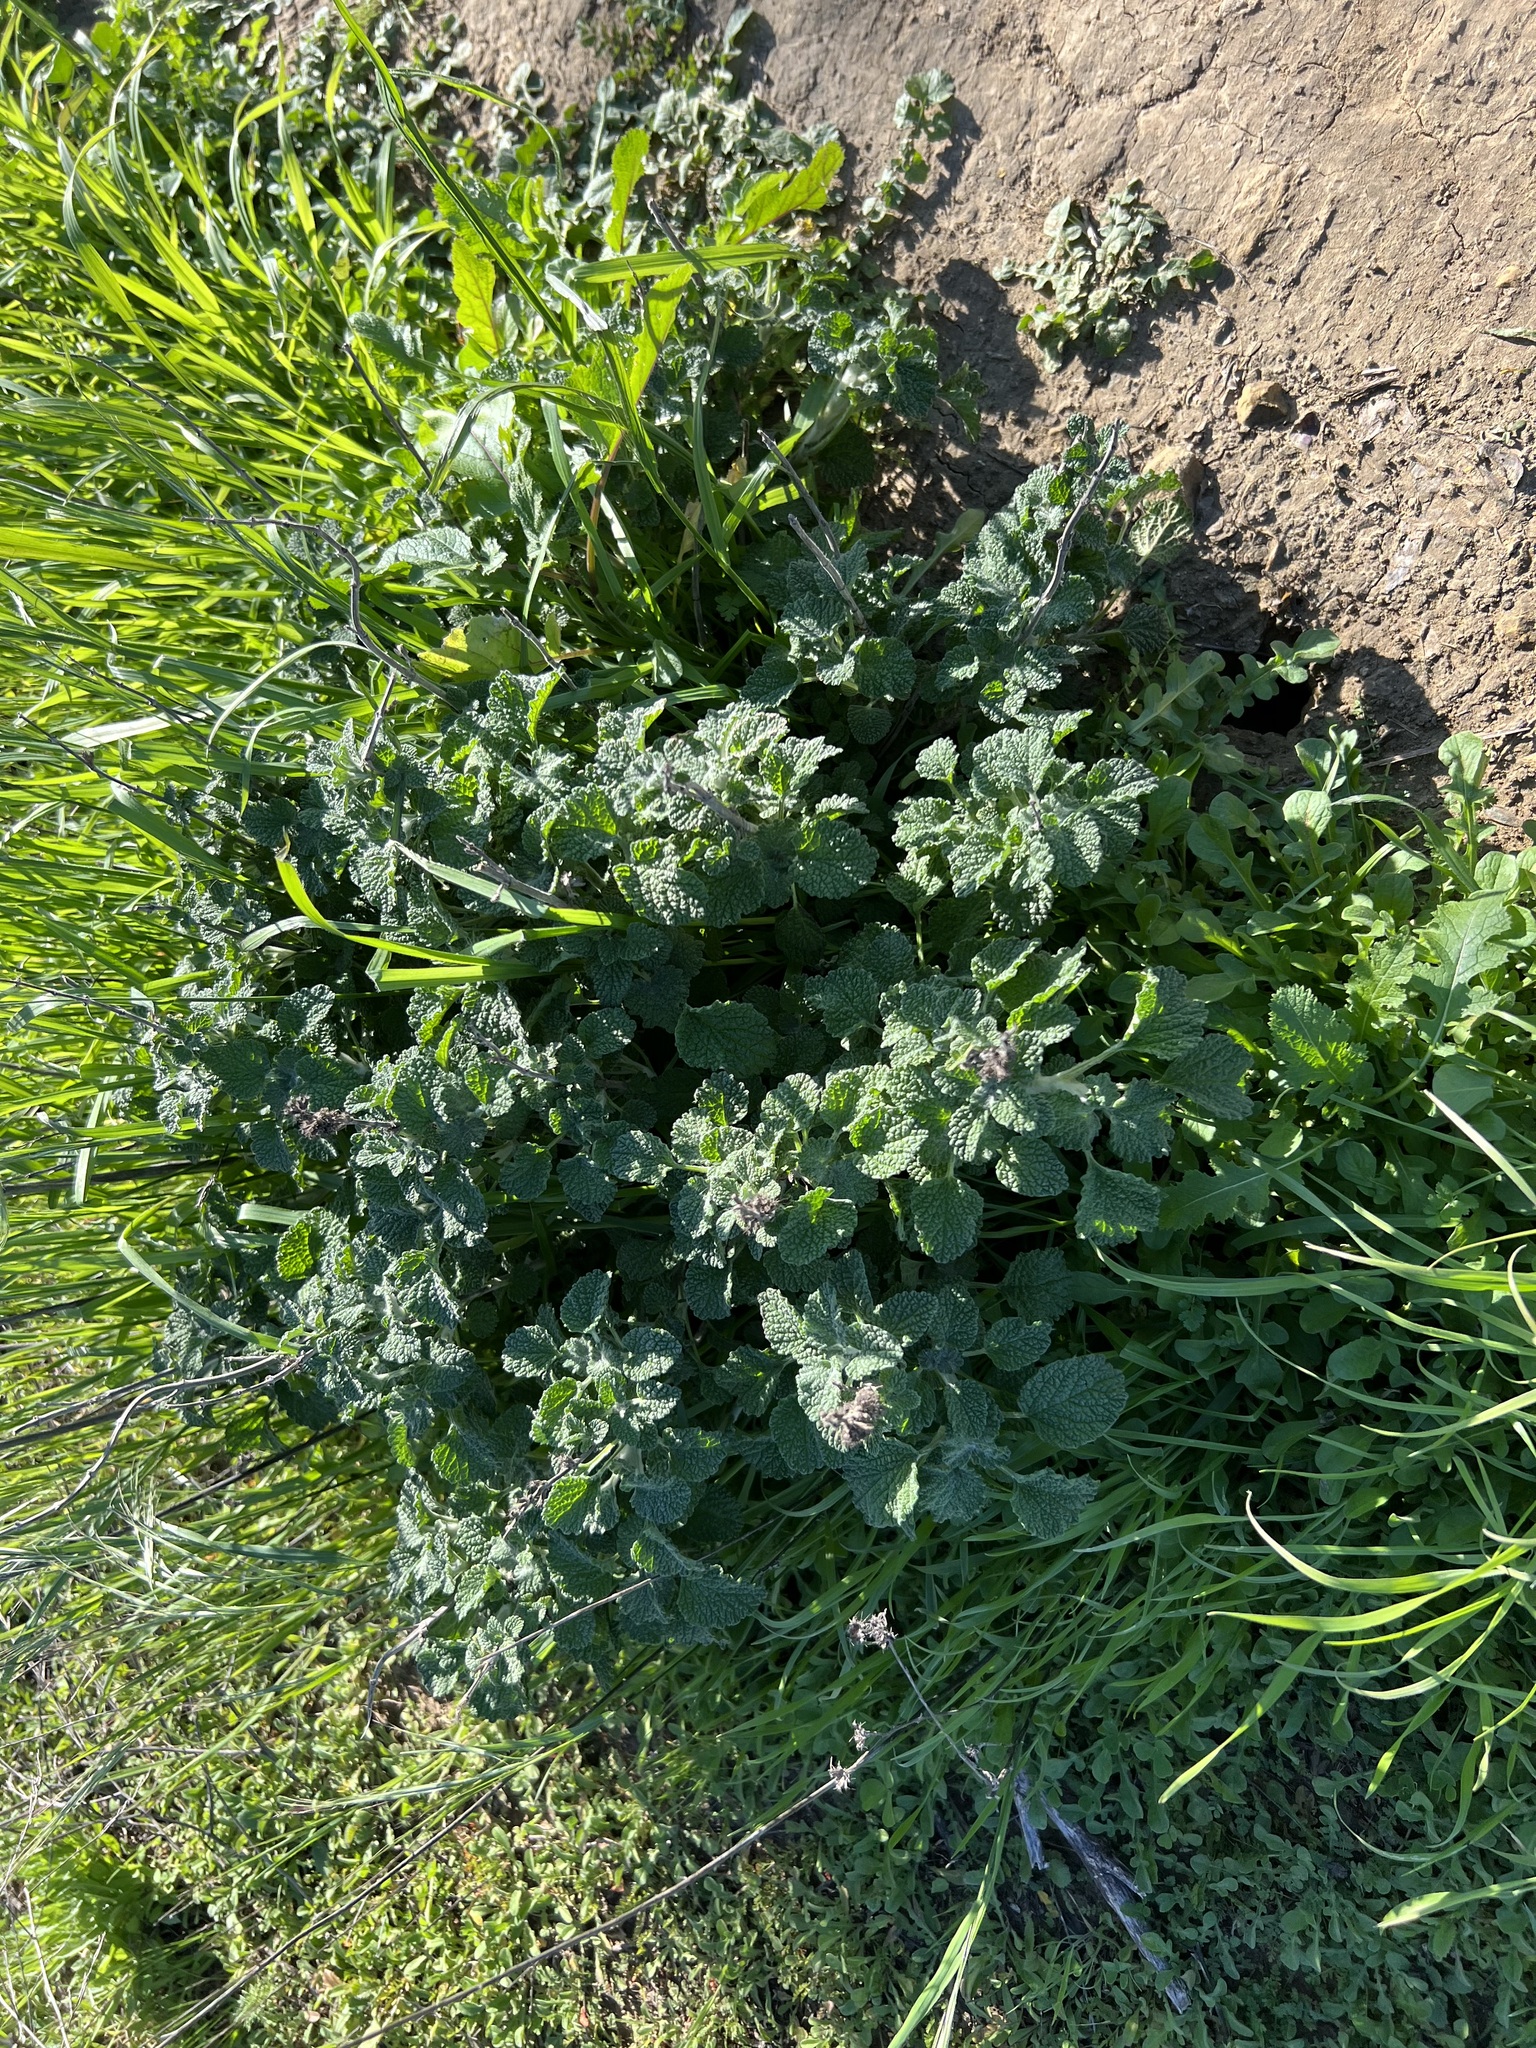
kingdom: Plantae
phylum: Tracheophyta
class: Magnoliopsida
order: Lamiales
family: Lamiaceae
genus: Marrubium
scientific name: Marrubium vulgare
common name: Horehound
